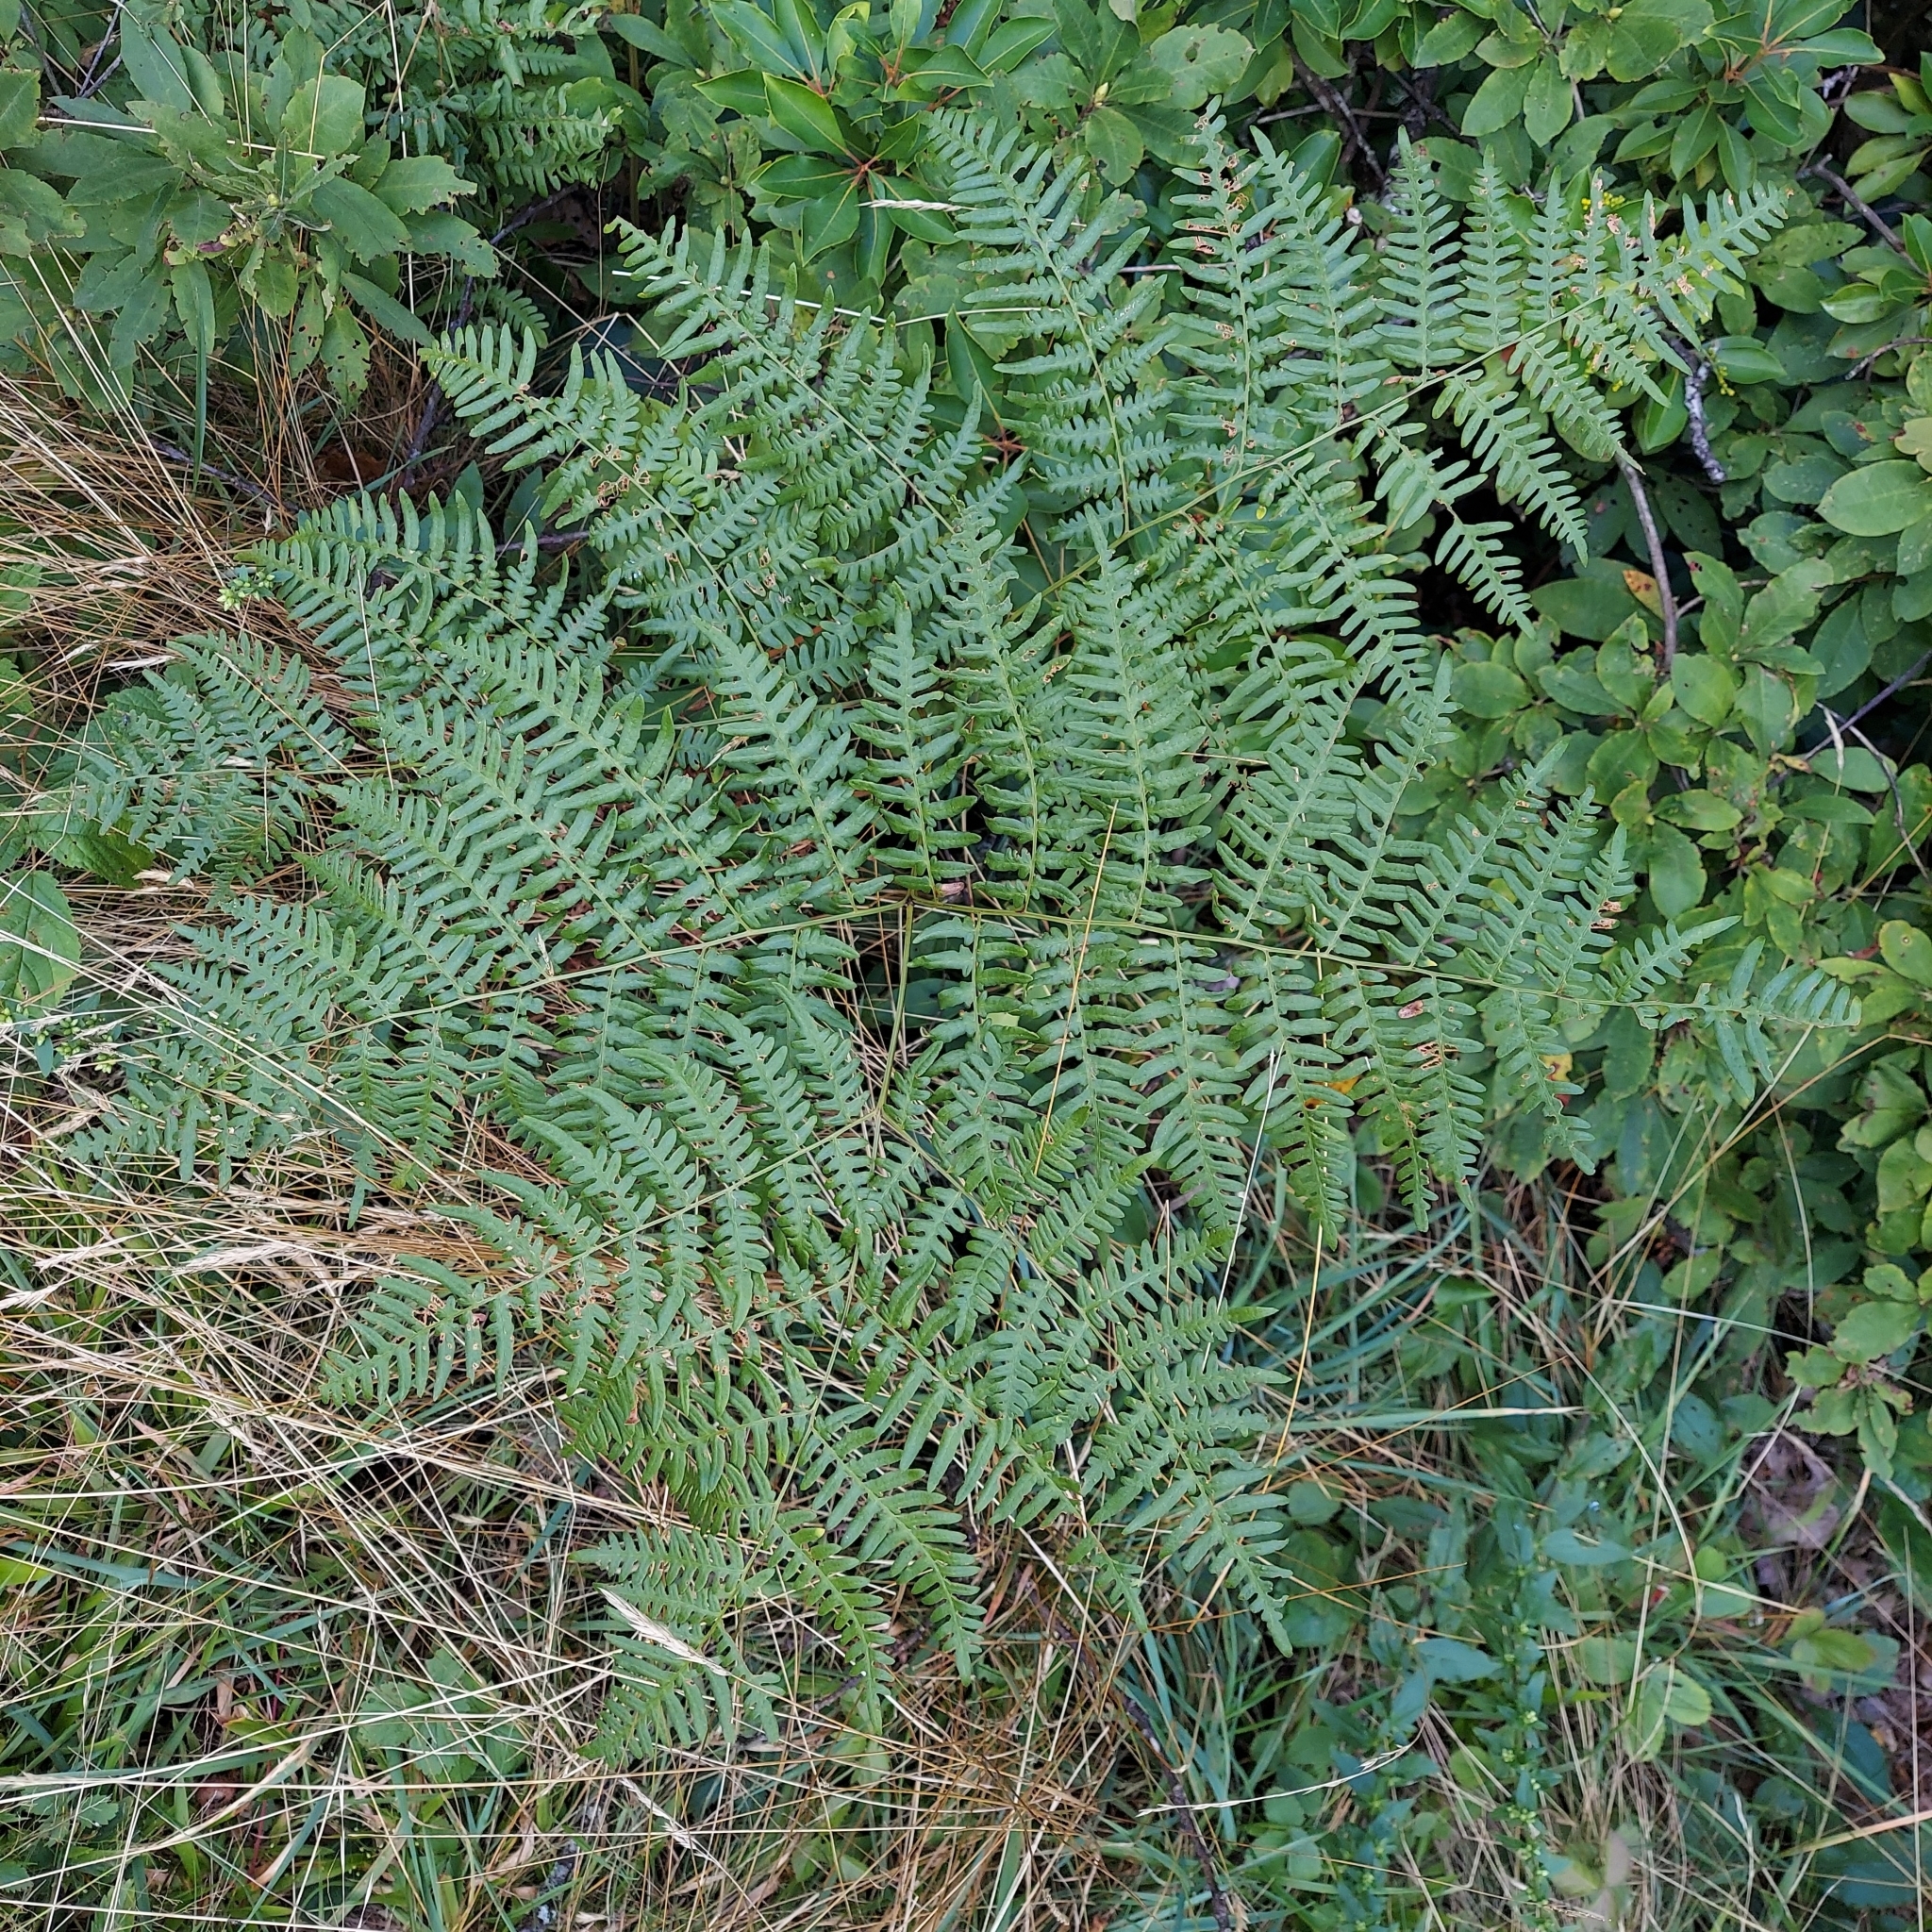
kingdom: Plantae
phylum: Tracheophyta
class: Polypodiopsida
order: Polypodiales
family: Dennstaedtiaceae
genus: Pteridium
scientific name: Pteridium aquilinum
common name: Bracken
